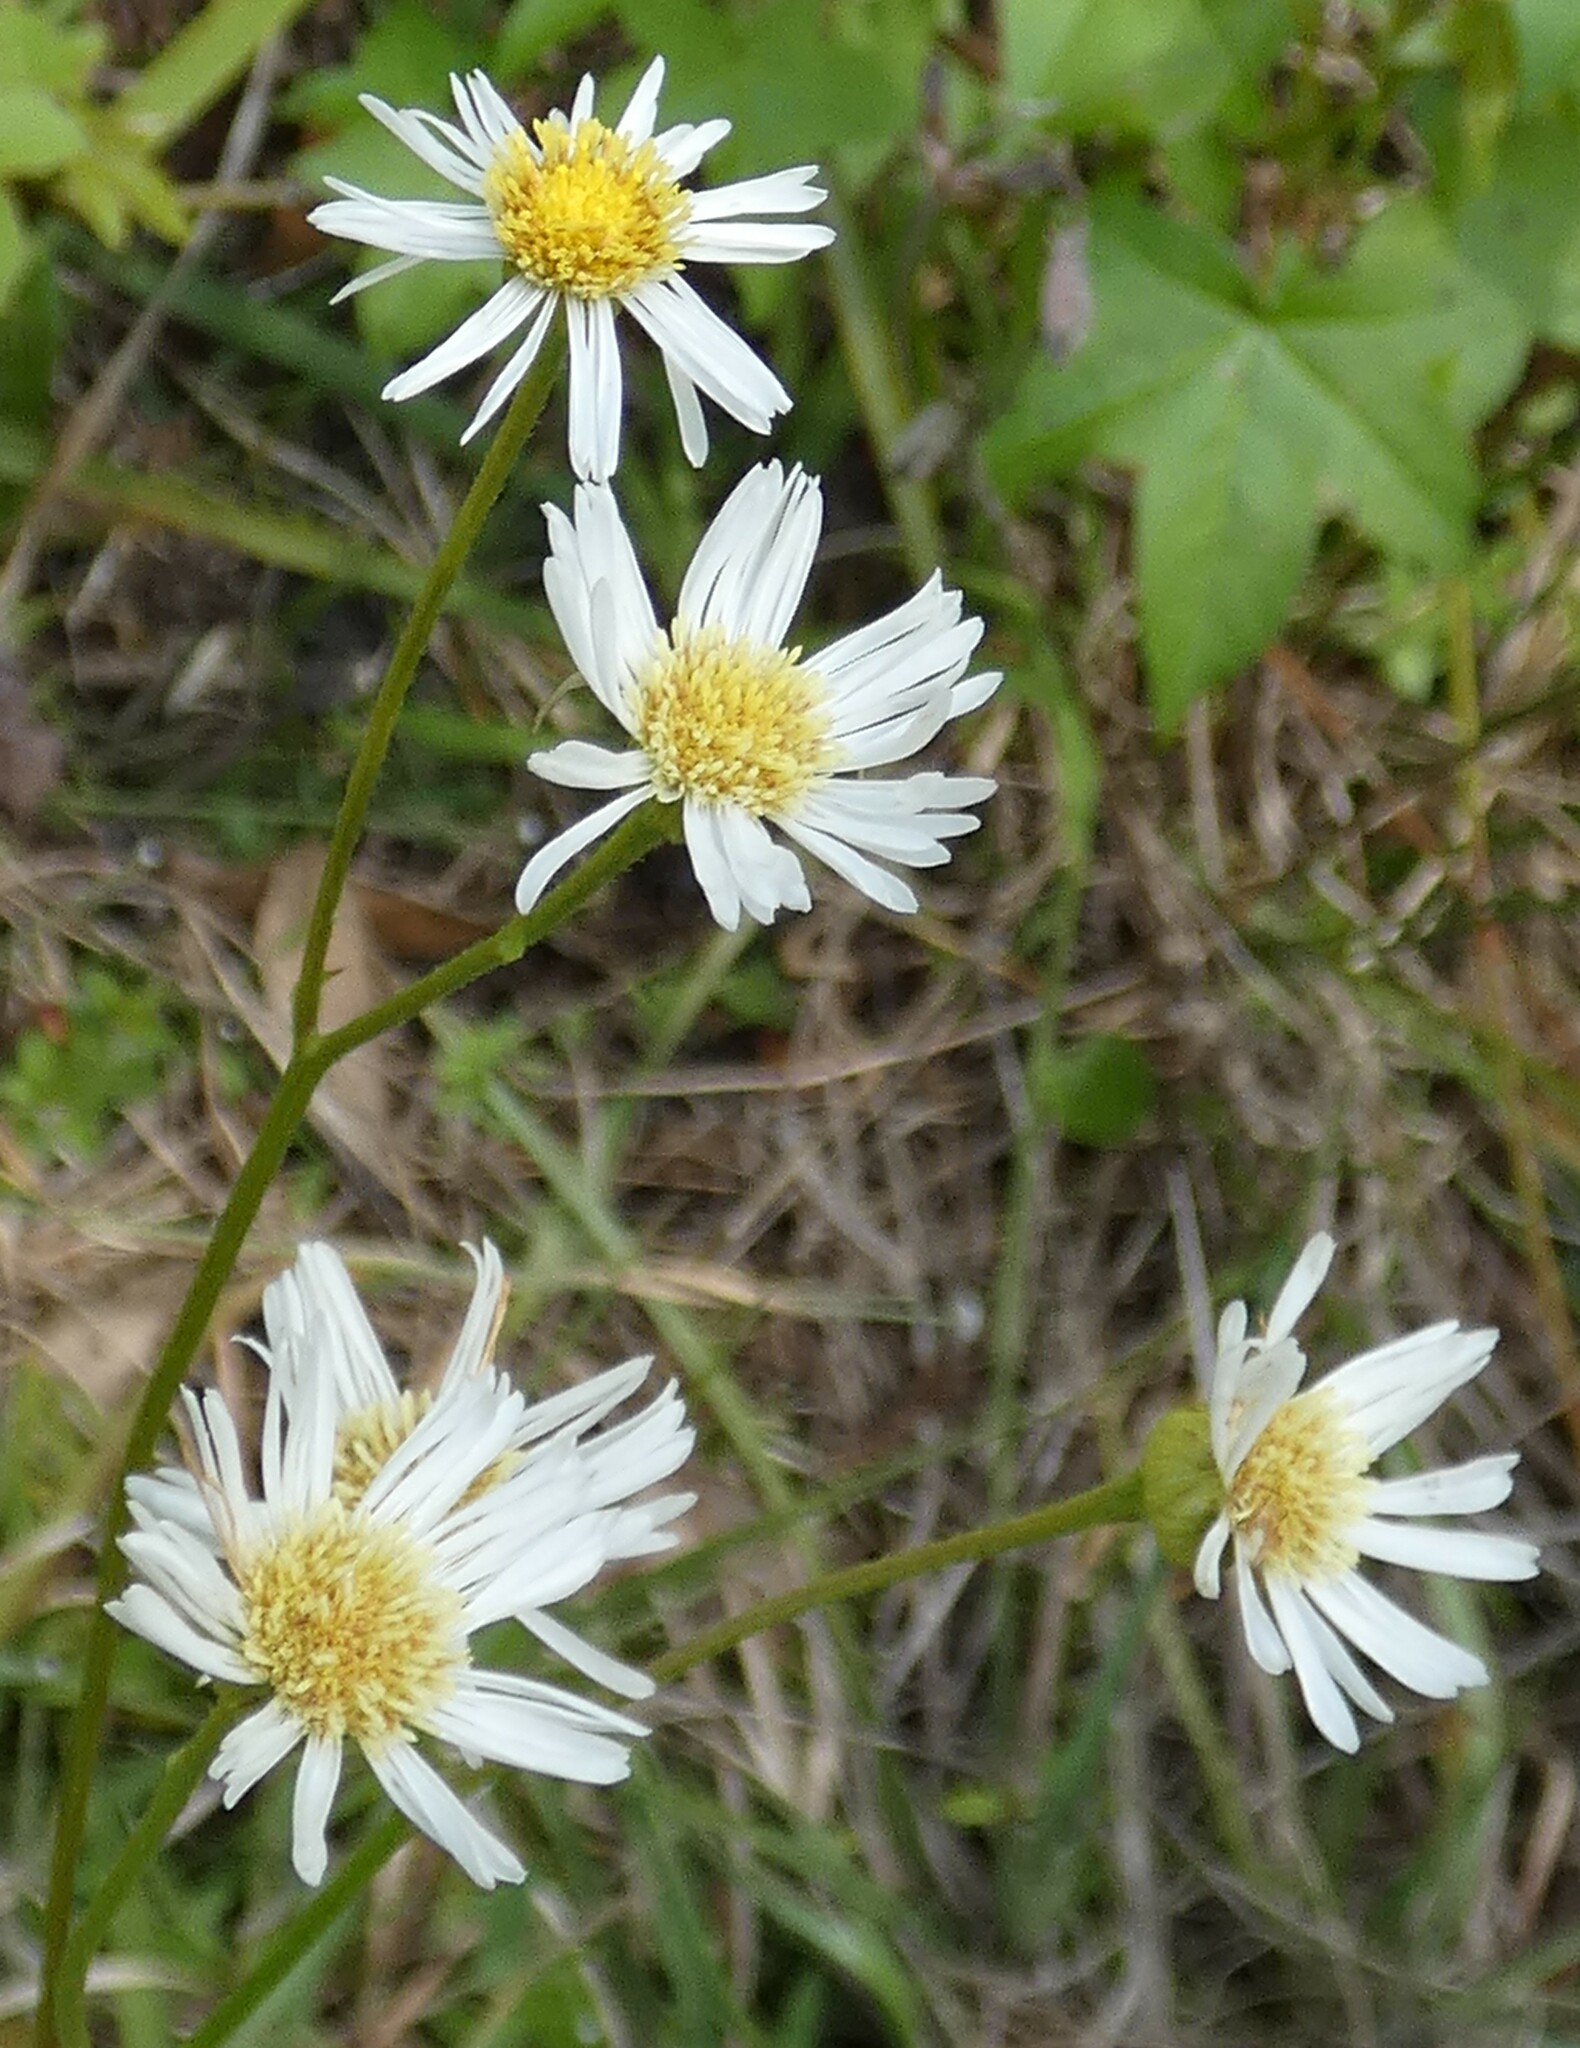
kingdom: Plantae
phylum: Tracheophyta
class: Magnoliopsida
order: Asterales
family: Asteraceae
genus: Erigeron
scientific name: Erigeron vernus
